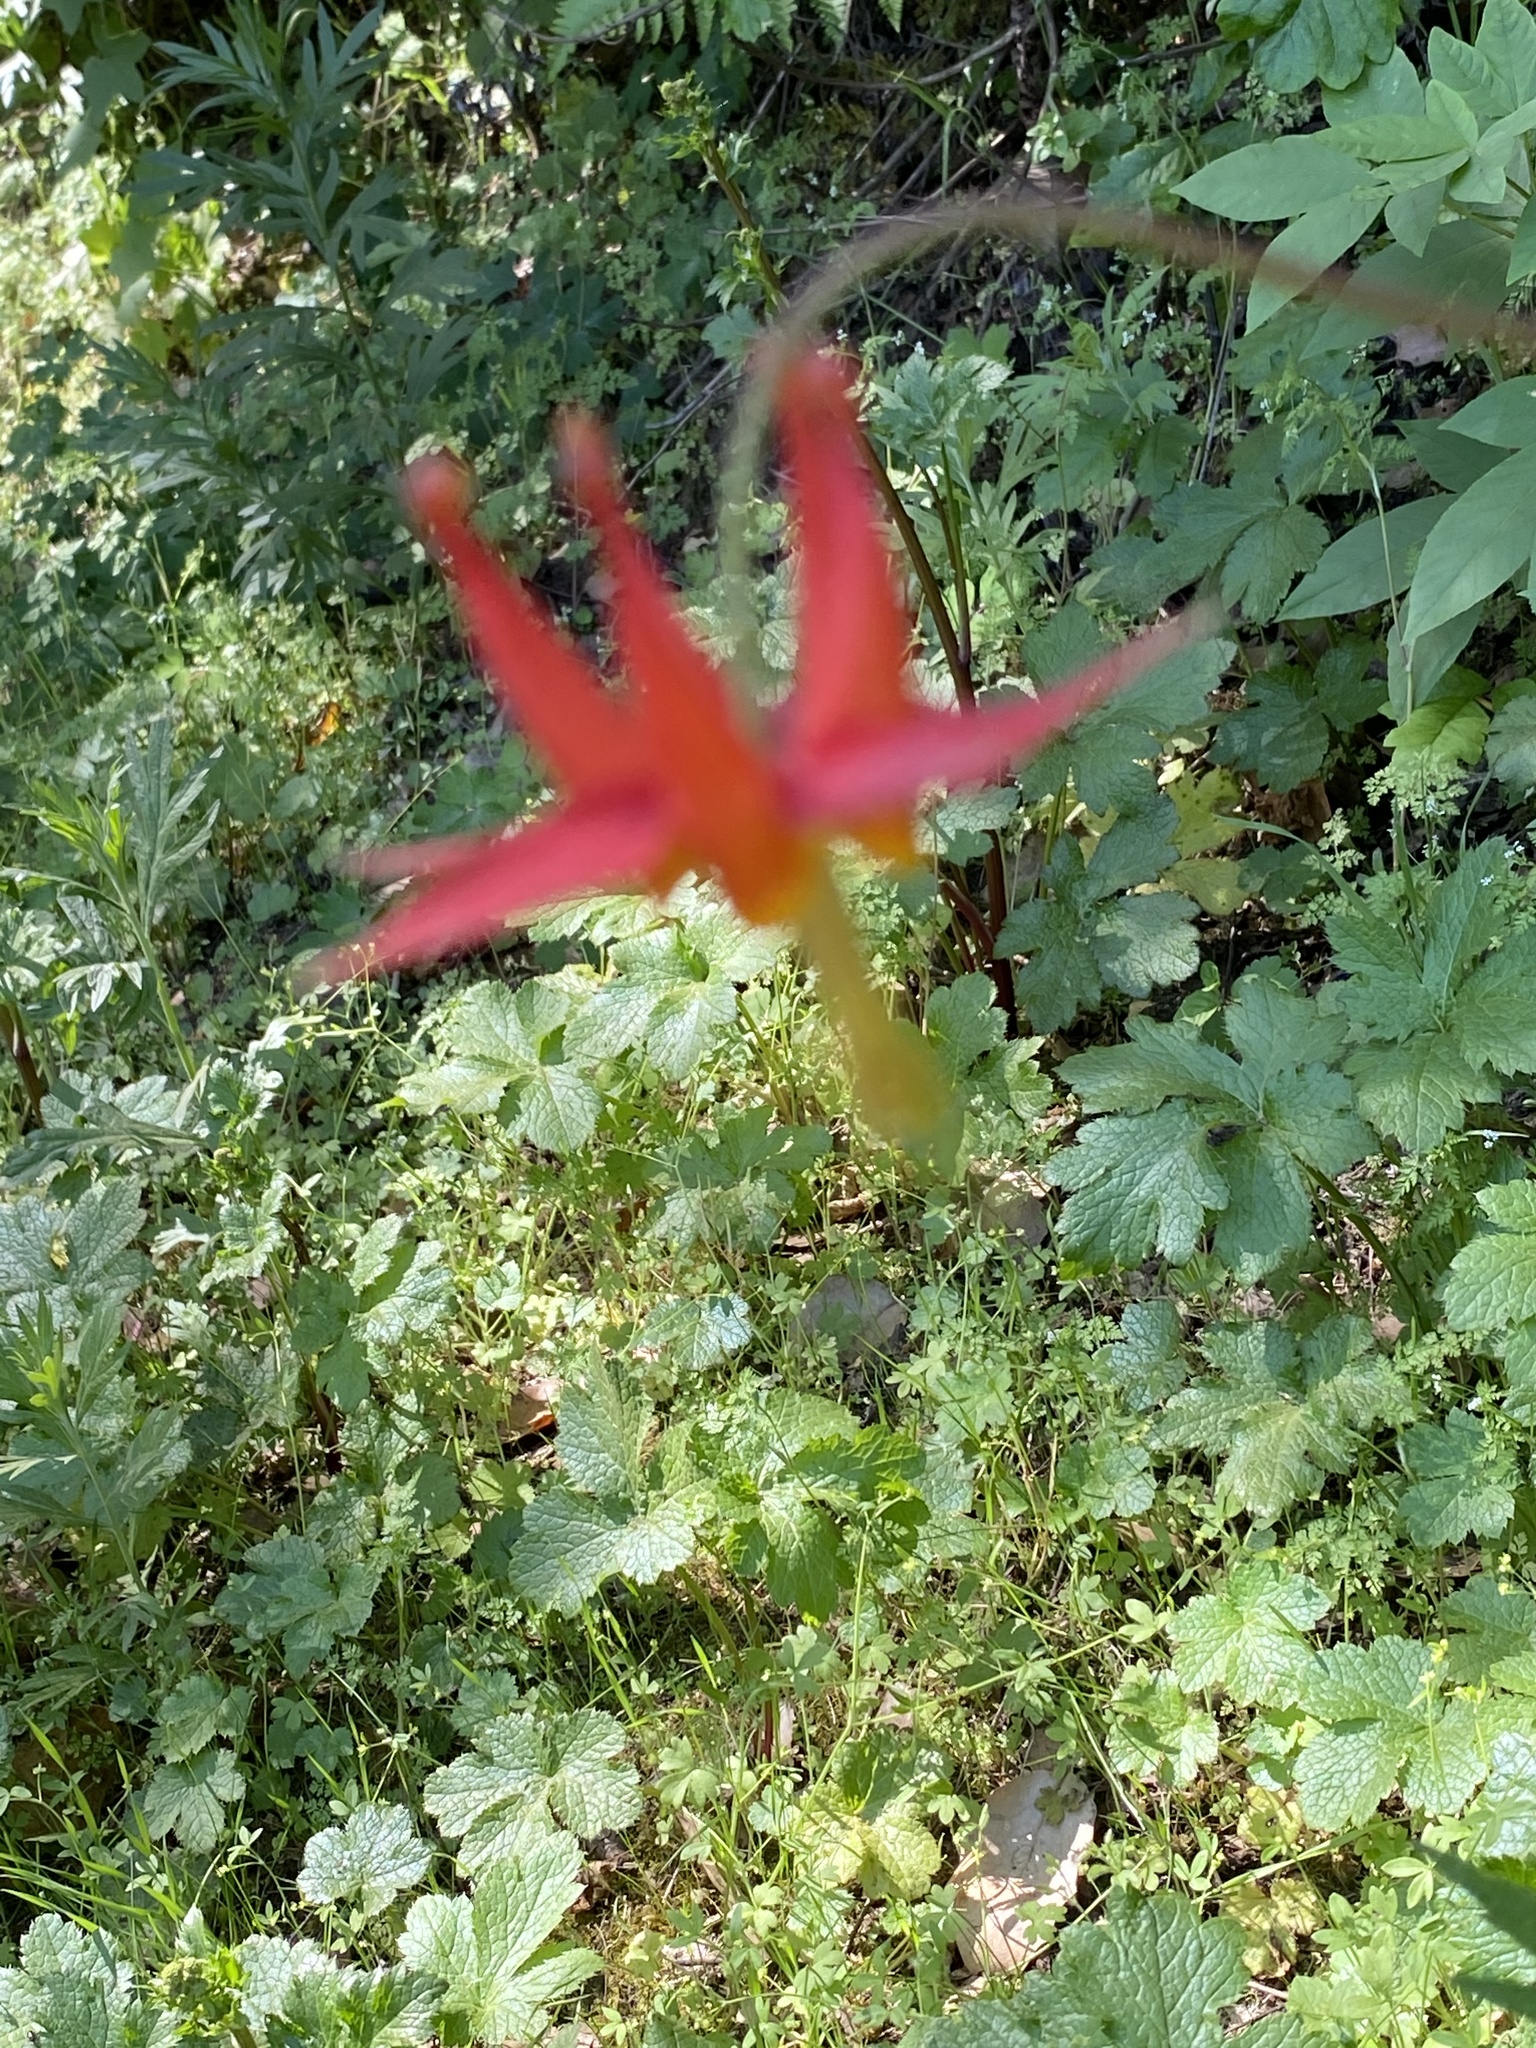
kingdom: Plantae
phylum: Tracheophyta
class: Magnoliopsida
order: Ranunculales
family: Ranunculaceae
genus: Aquilegia
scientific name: Aquilegia formosa
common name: Sitka columbine
